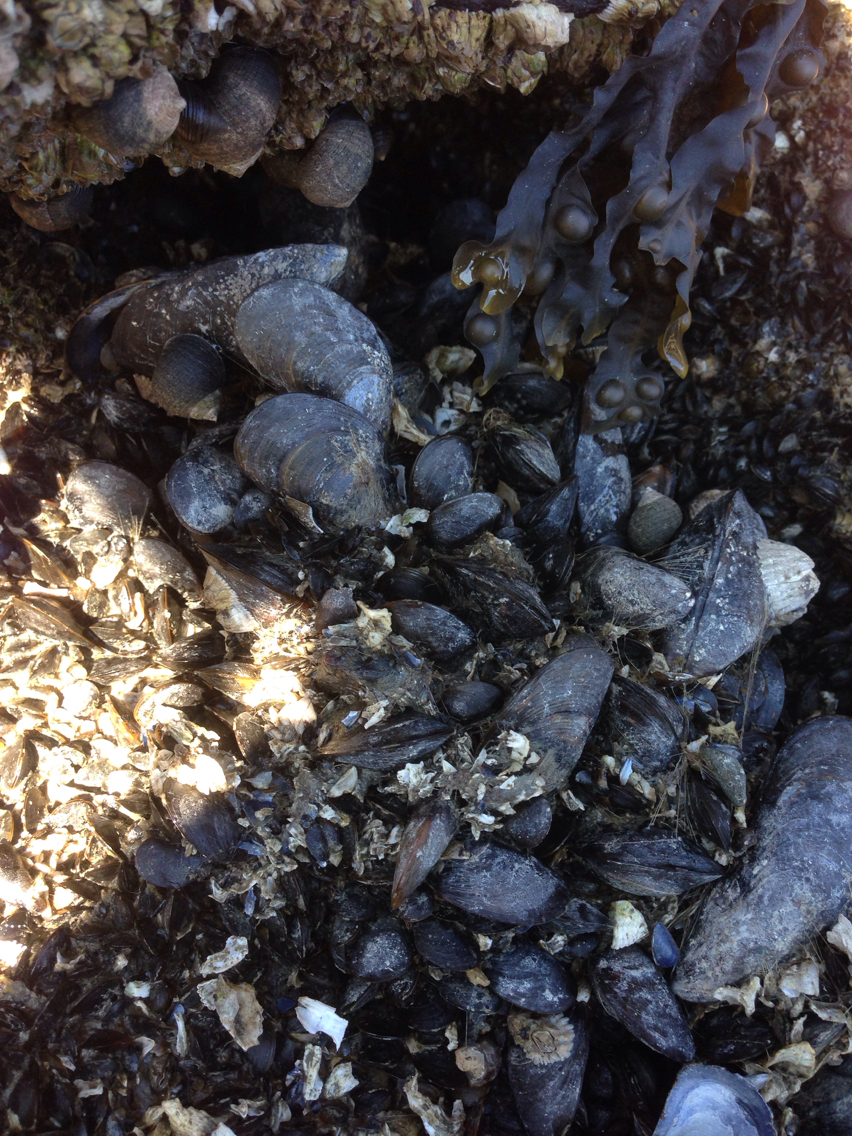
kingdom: Animalia
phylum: Mollusca
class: Bivalvia
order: Mytilida
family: Mytilidae
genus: Mytilus
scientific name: Mytilus edulis
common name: Blue mussel
